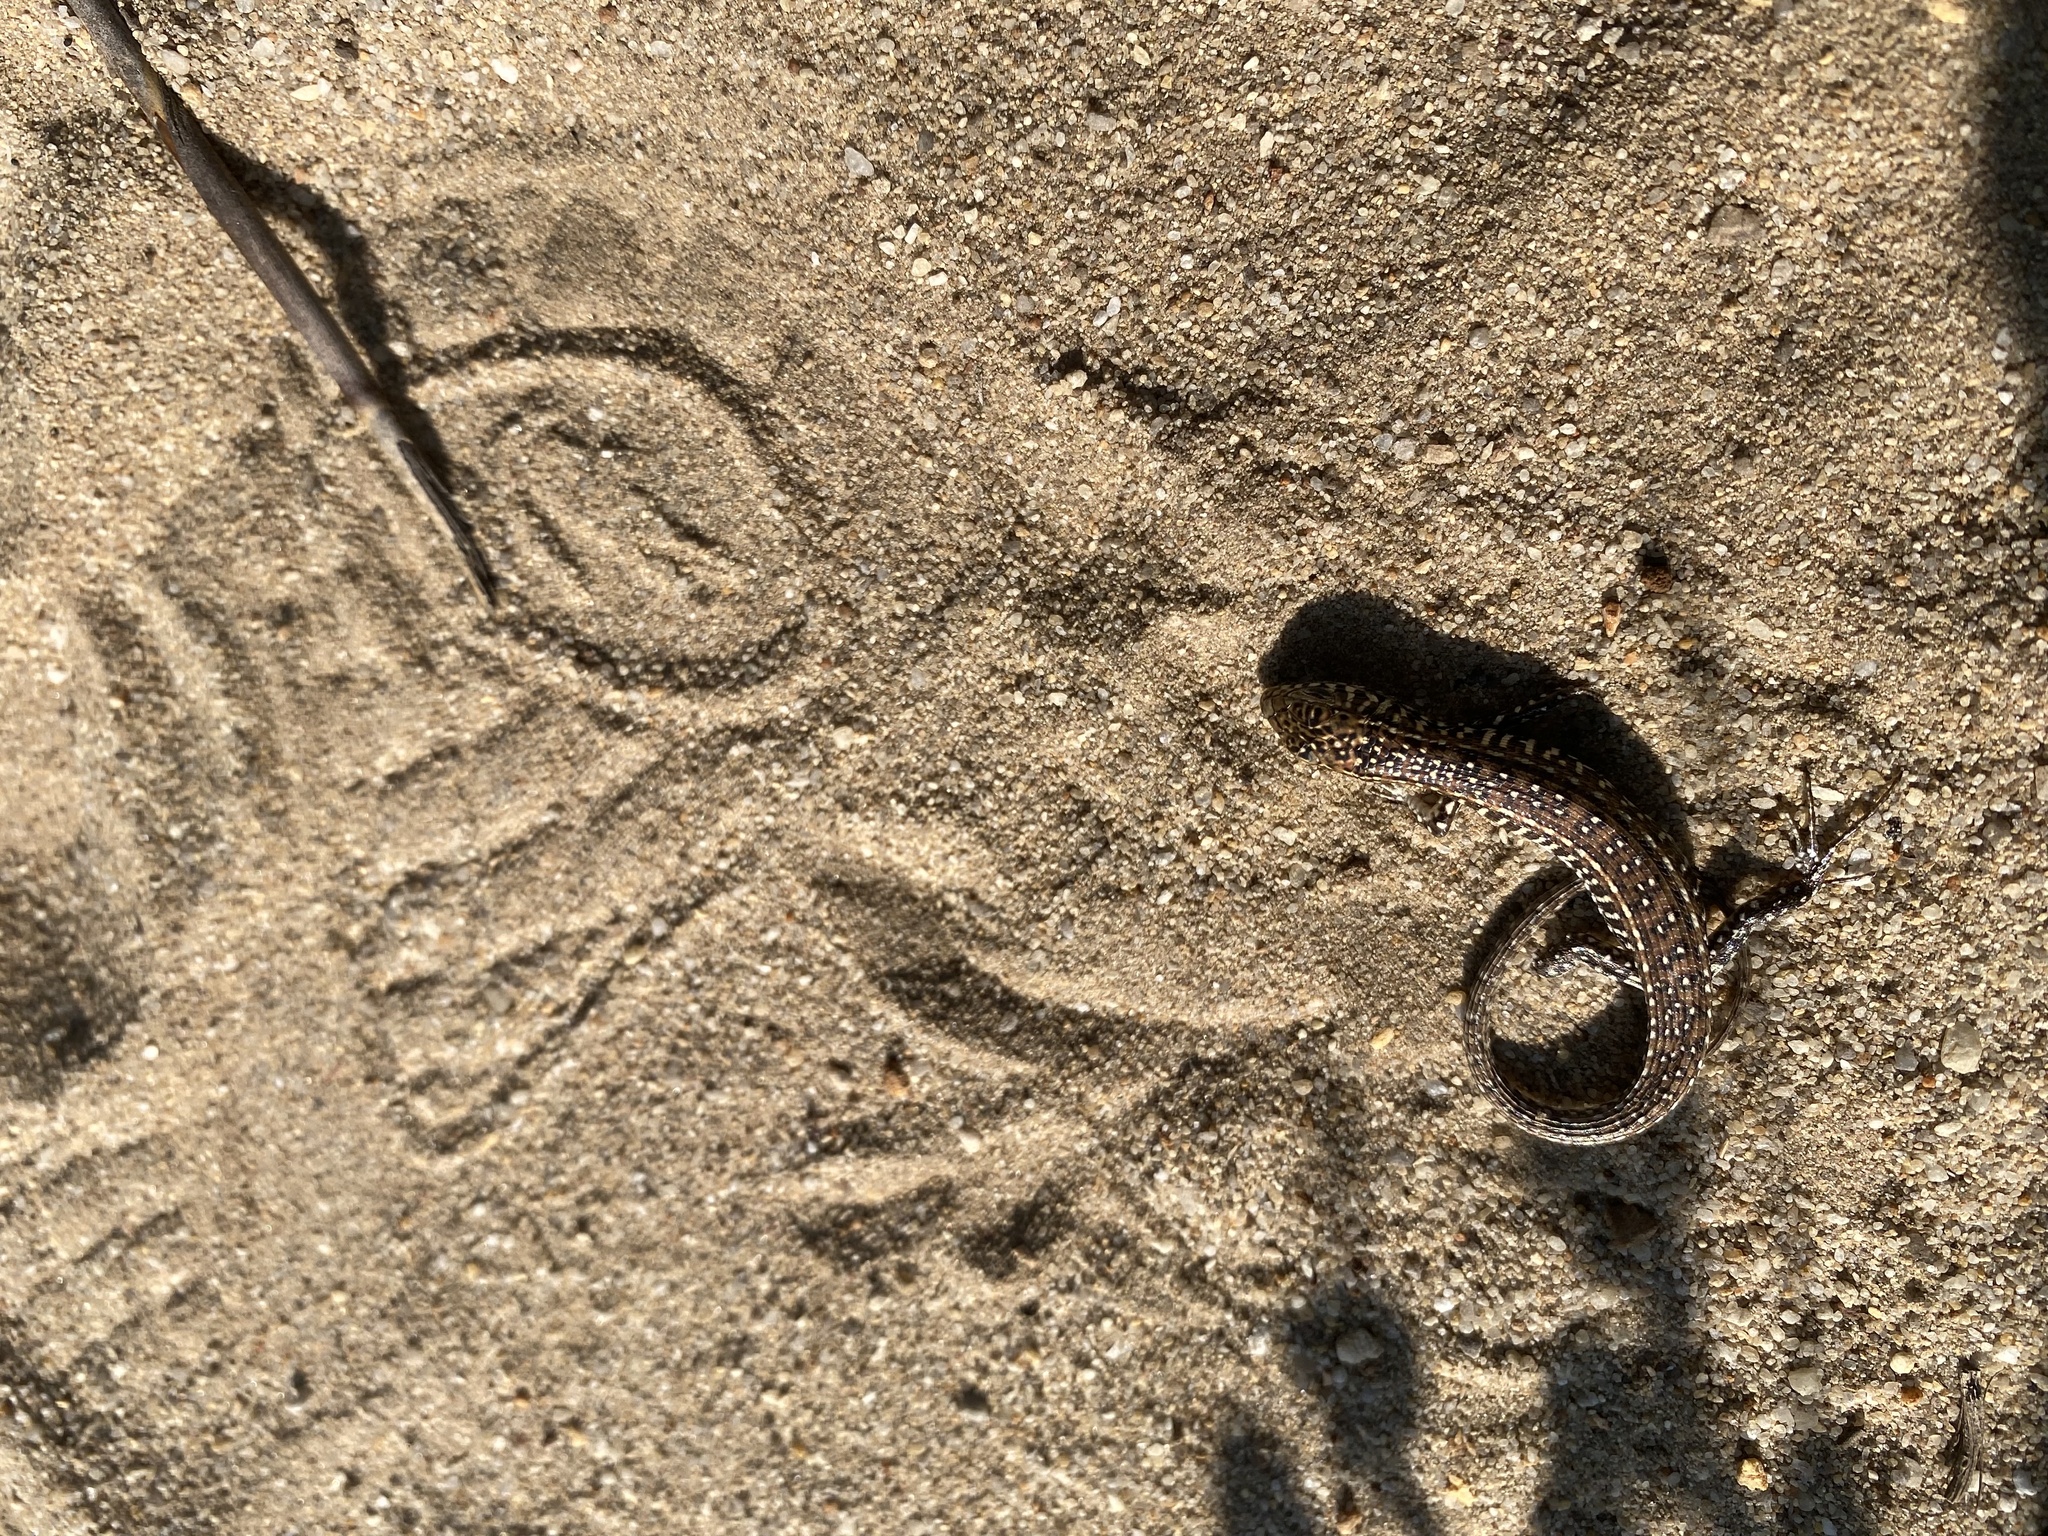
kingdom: Animalia
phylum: Chordata
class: Squamata
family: Gerrhosauridae
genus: Gerrhosaurus
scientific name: Gerrhosaurus flavigularis
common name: Yellow-throated plated lizard
